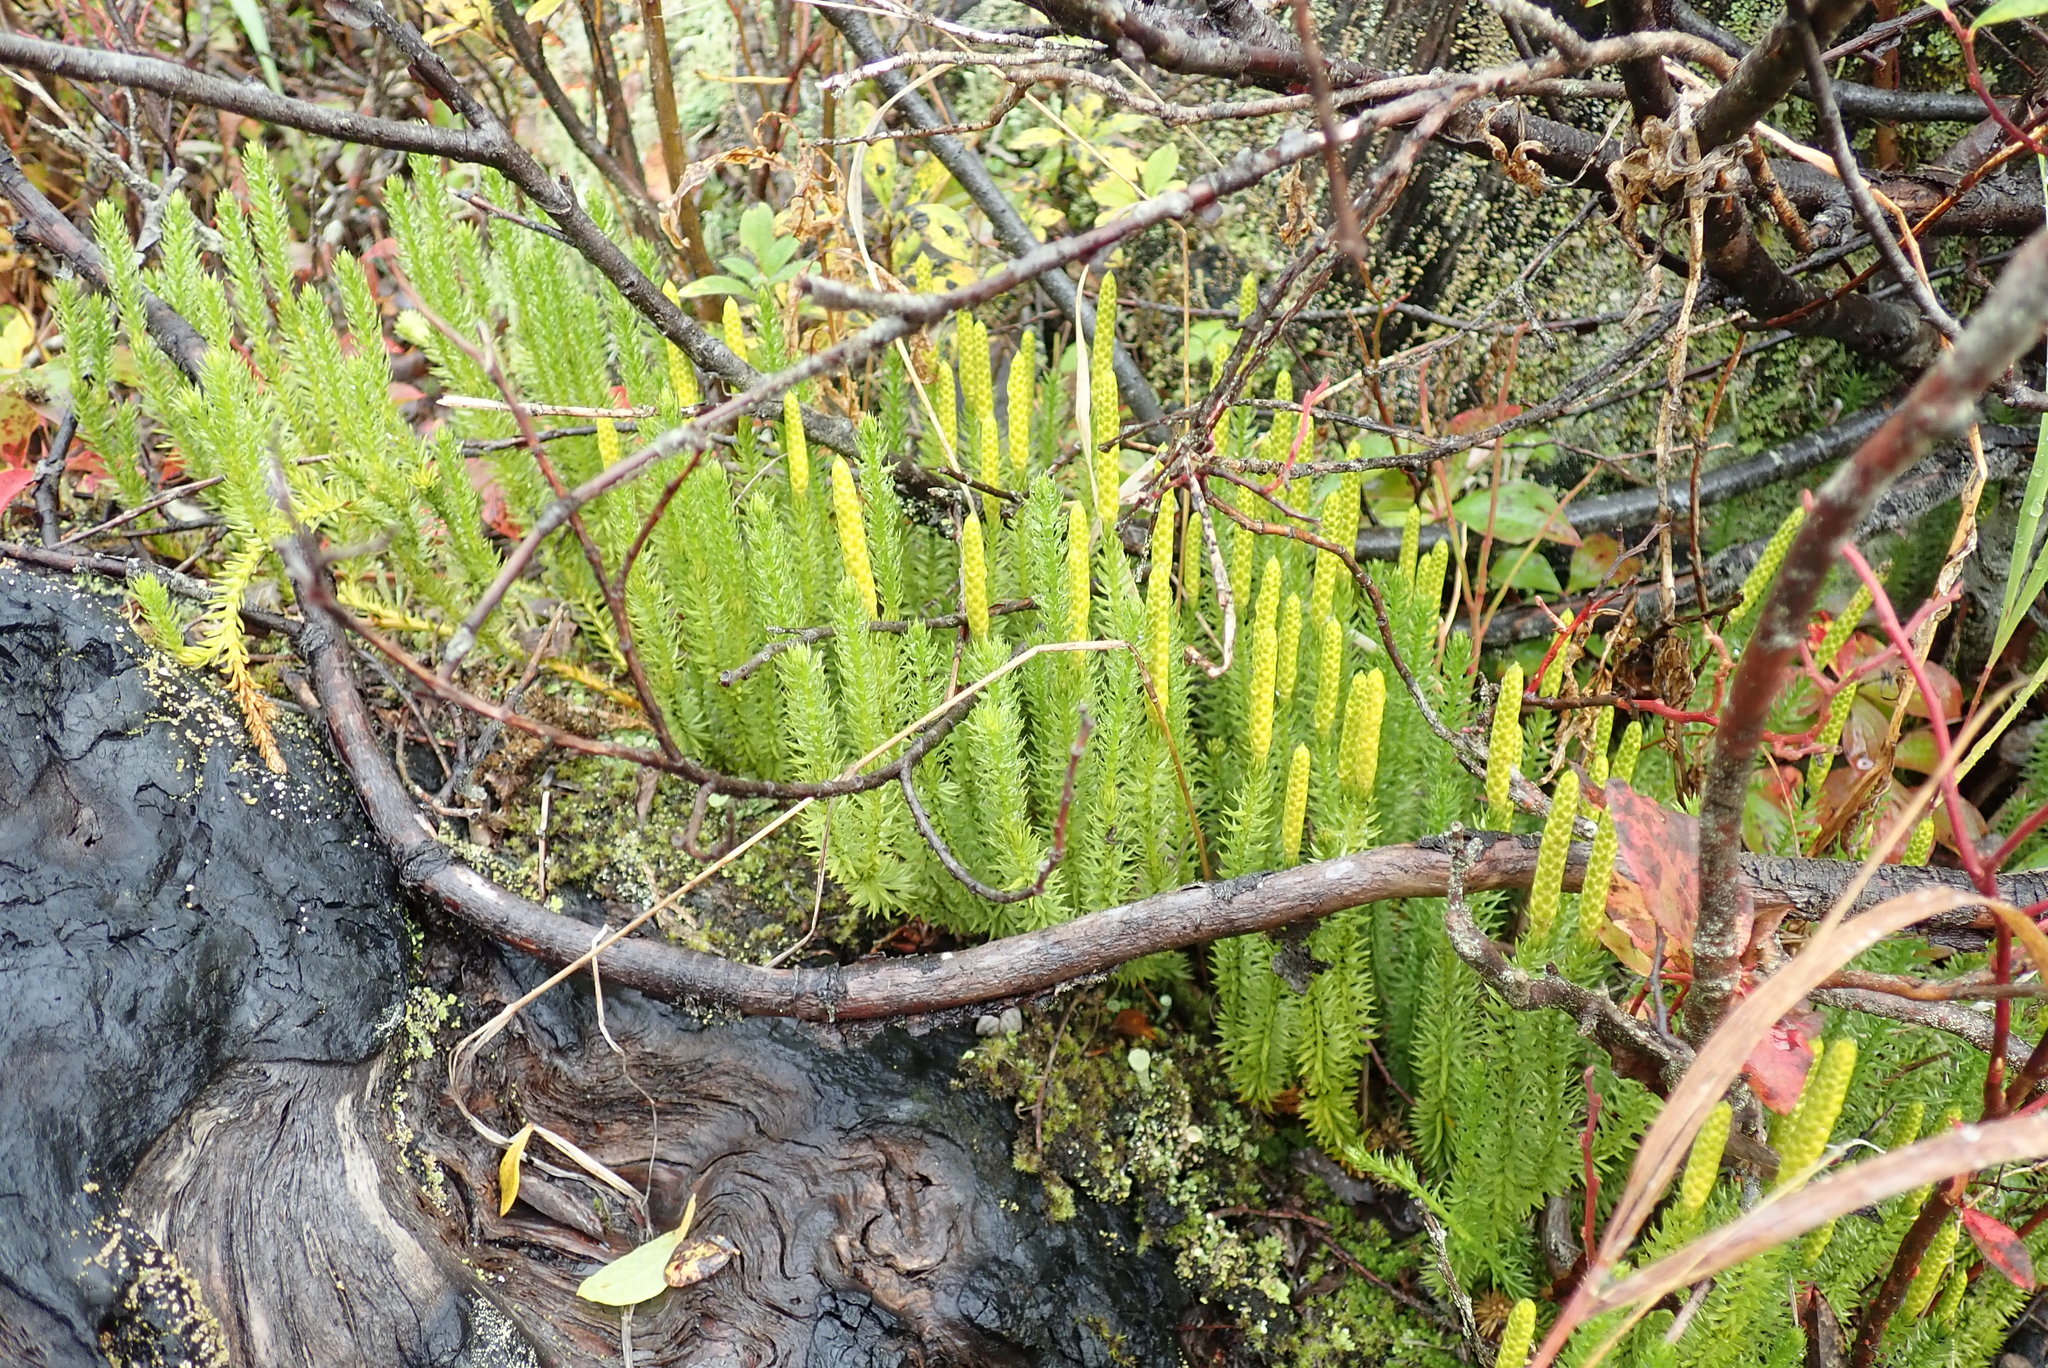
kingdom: Plantae
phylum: Tracheophyta
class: Lycopodiopsida
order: Lycopodiales
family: Lycopodiaceae
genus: Spinulum
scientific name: Spinulum annotinum
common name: Interrupted club-moss
